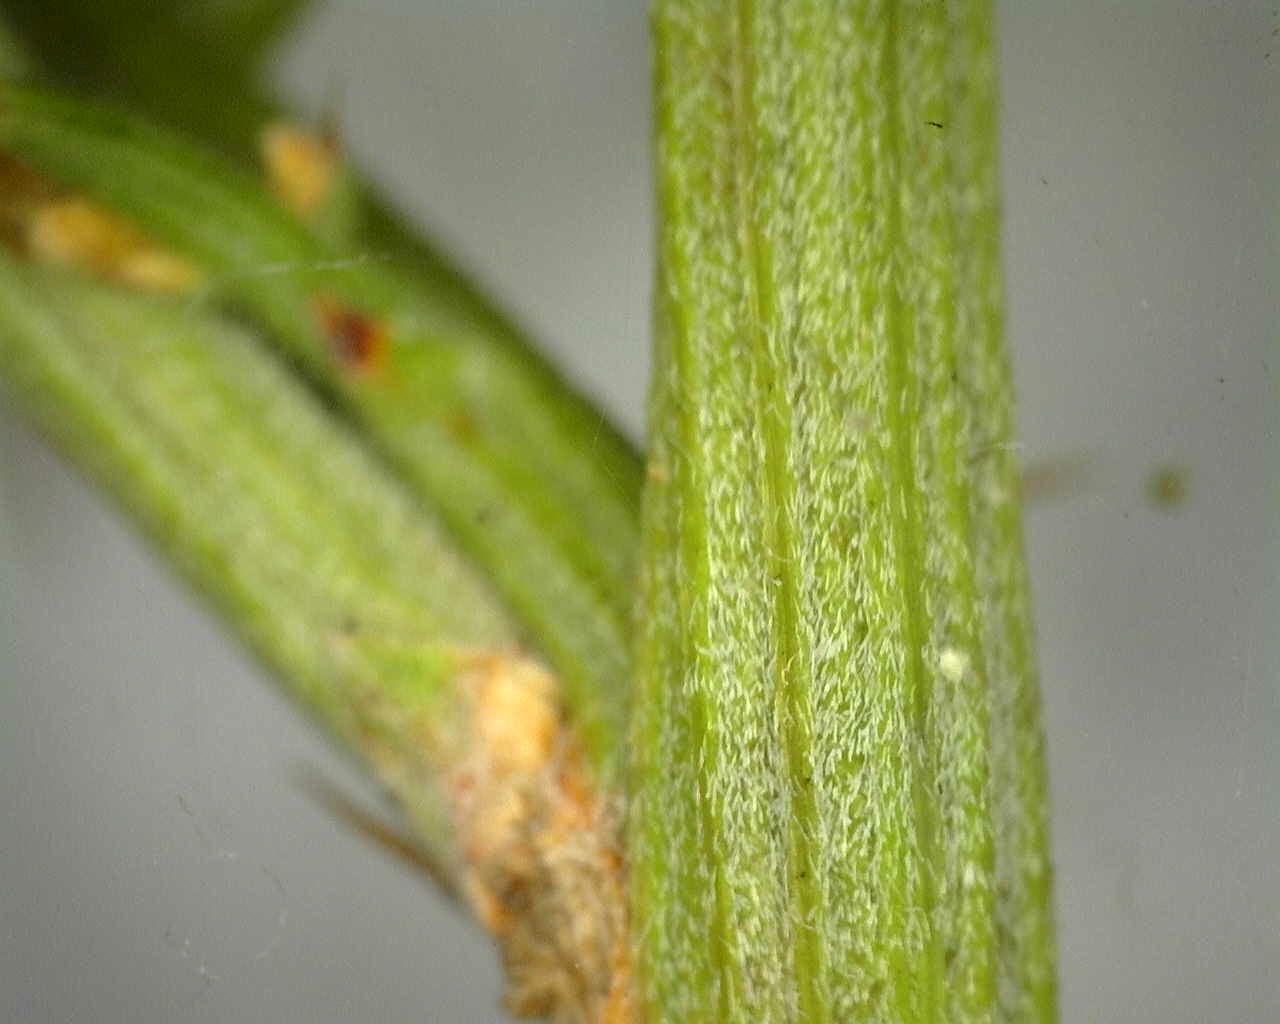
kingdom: Plantae
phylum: Tracheophyta
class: Magnoliopsida
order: Fabales
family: Fabaceae
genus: Ulex
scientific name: Ulex argenteus
